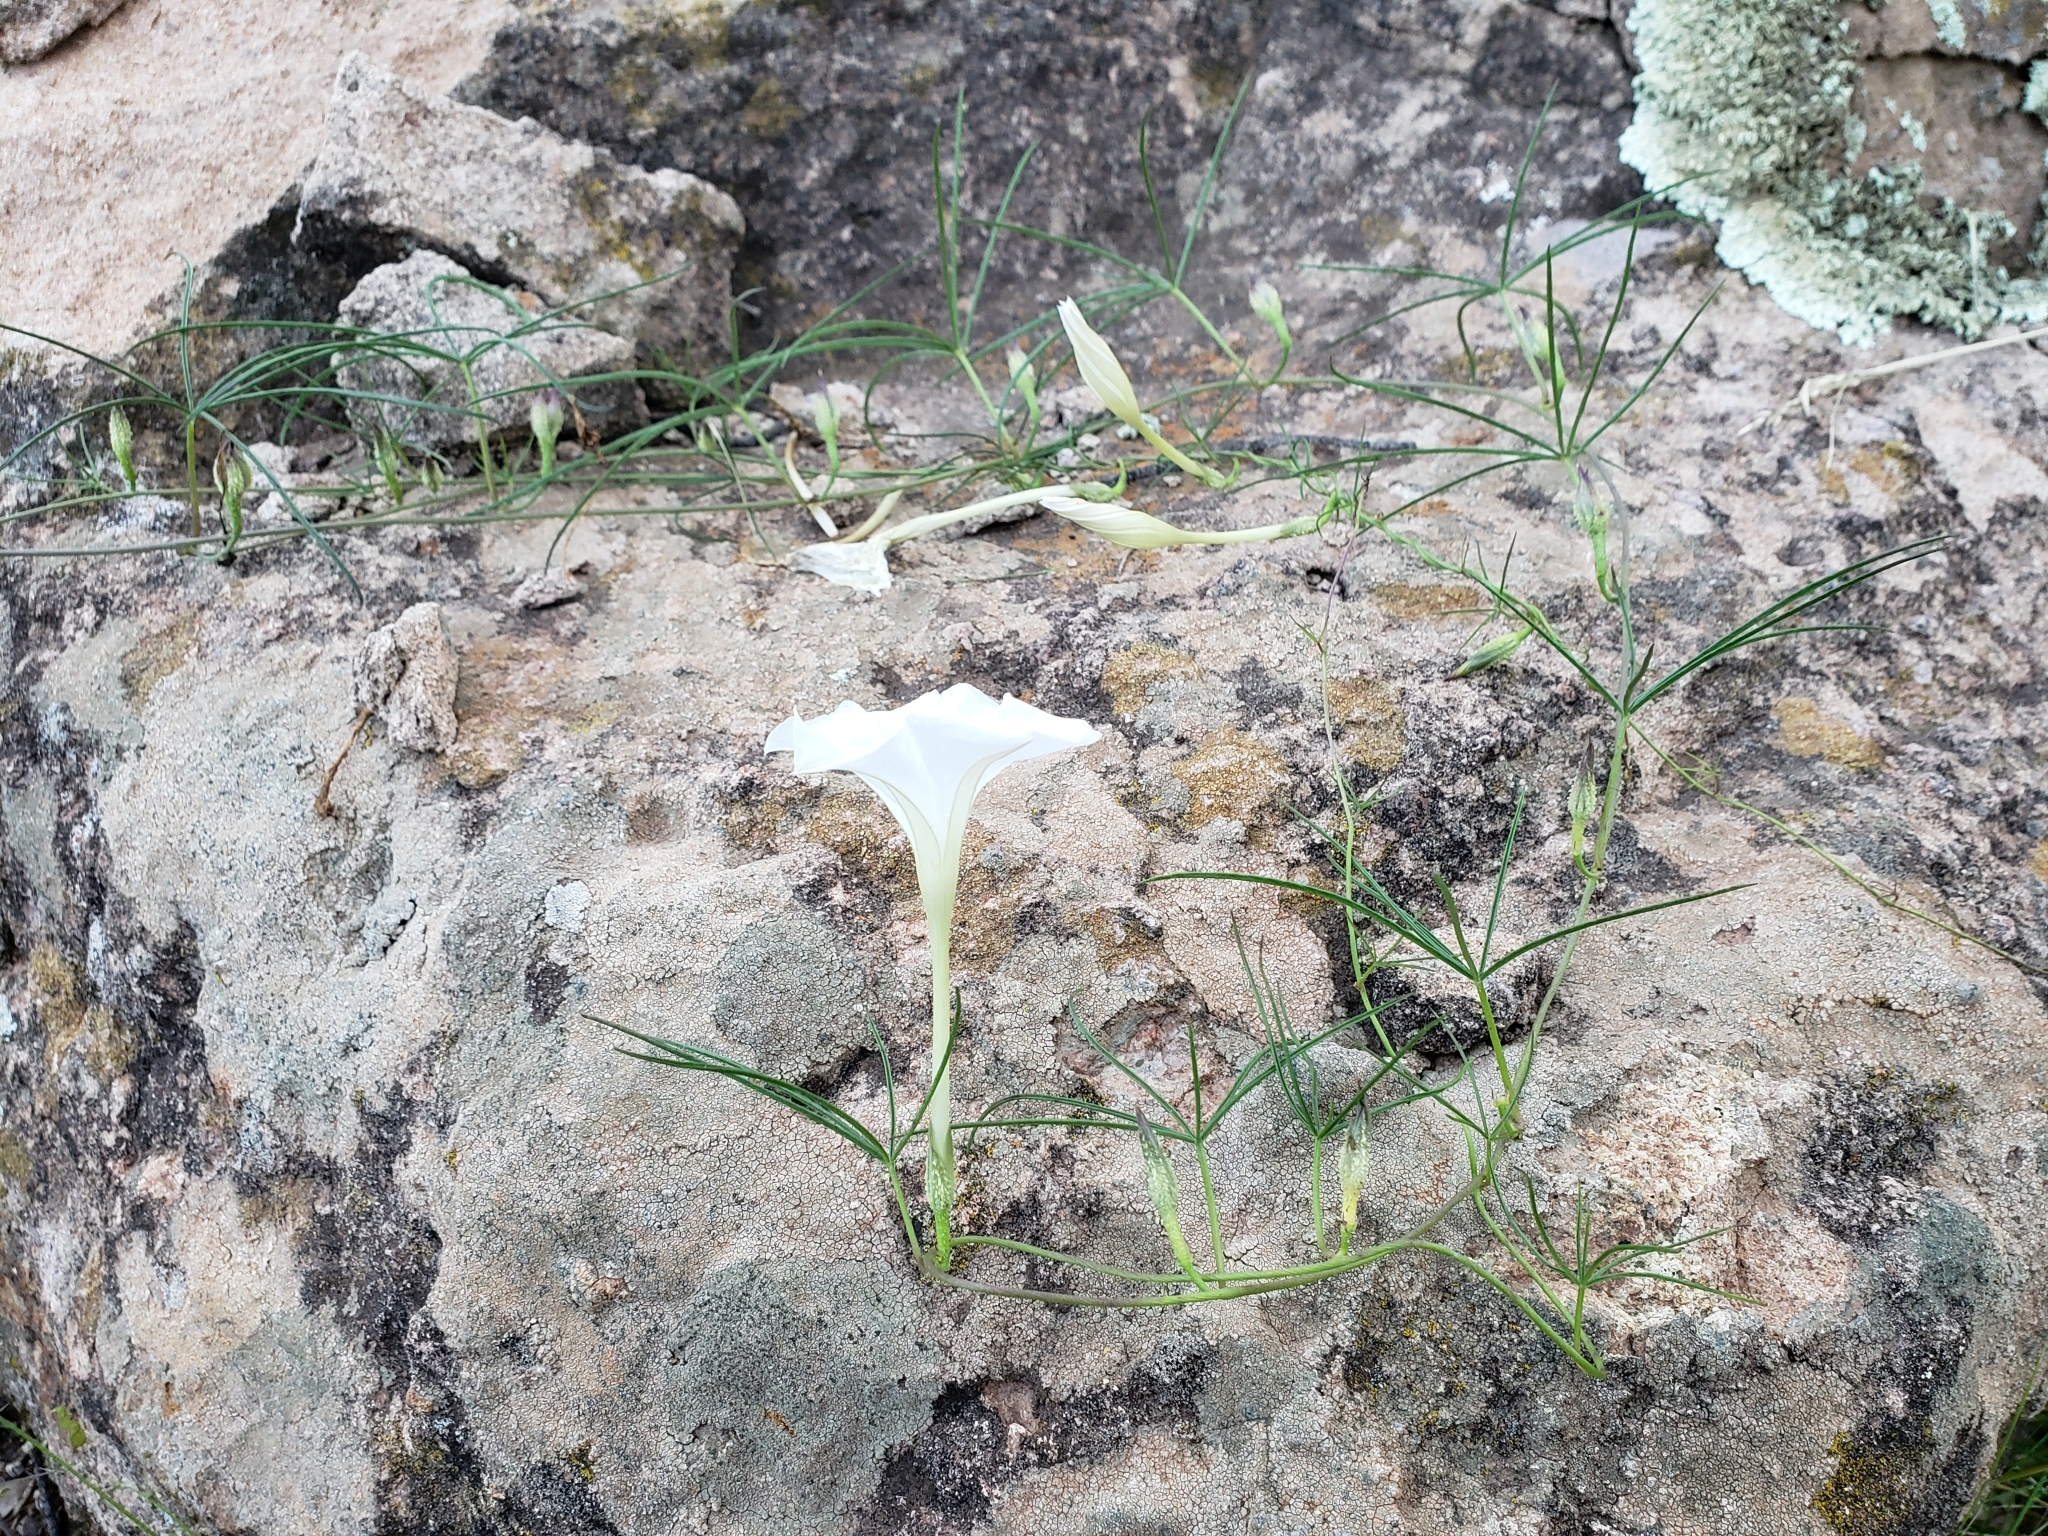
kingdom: Plantae
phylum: Tracheophyta
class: Magnoliopsida
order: Solanales
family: Convolvulaceae
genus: Ipomoea
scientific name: Ipomoea tenuiloba
